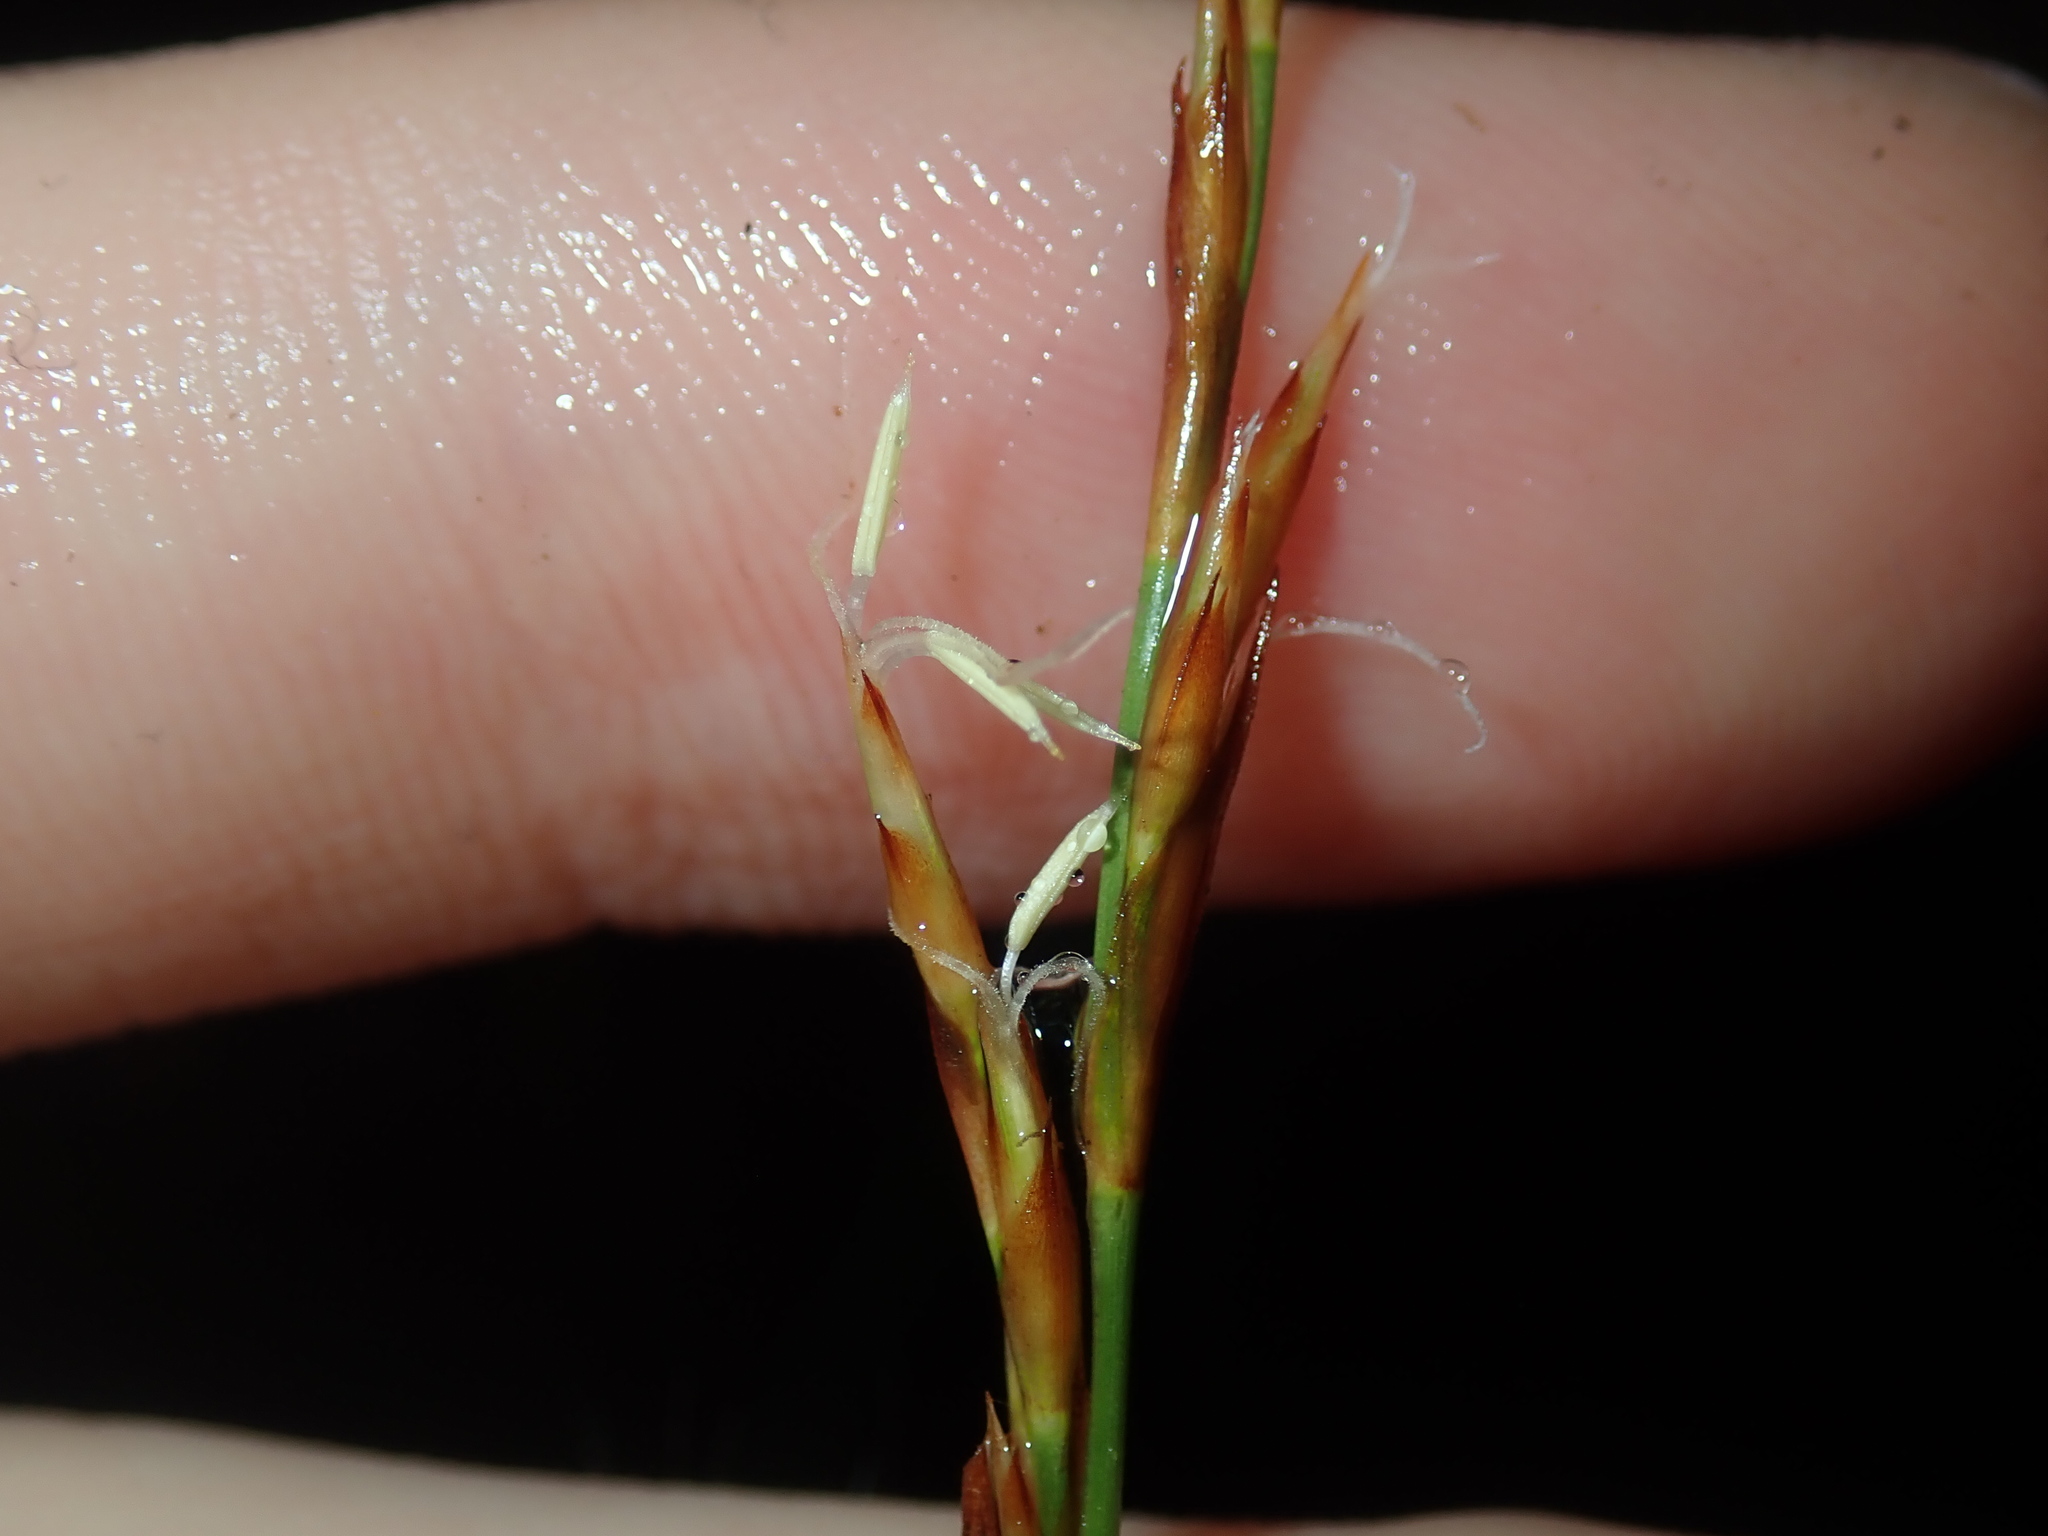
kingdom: Plantae
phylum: Tracheophyta
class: Liliopsida
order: Poales
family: Cyperaceae
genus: Lepidosperma
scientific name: Lepidosperma laterale
